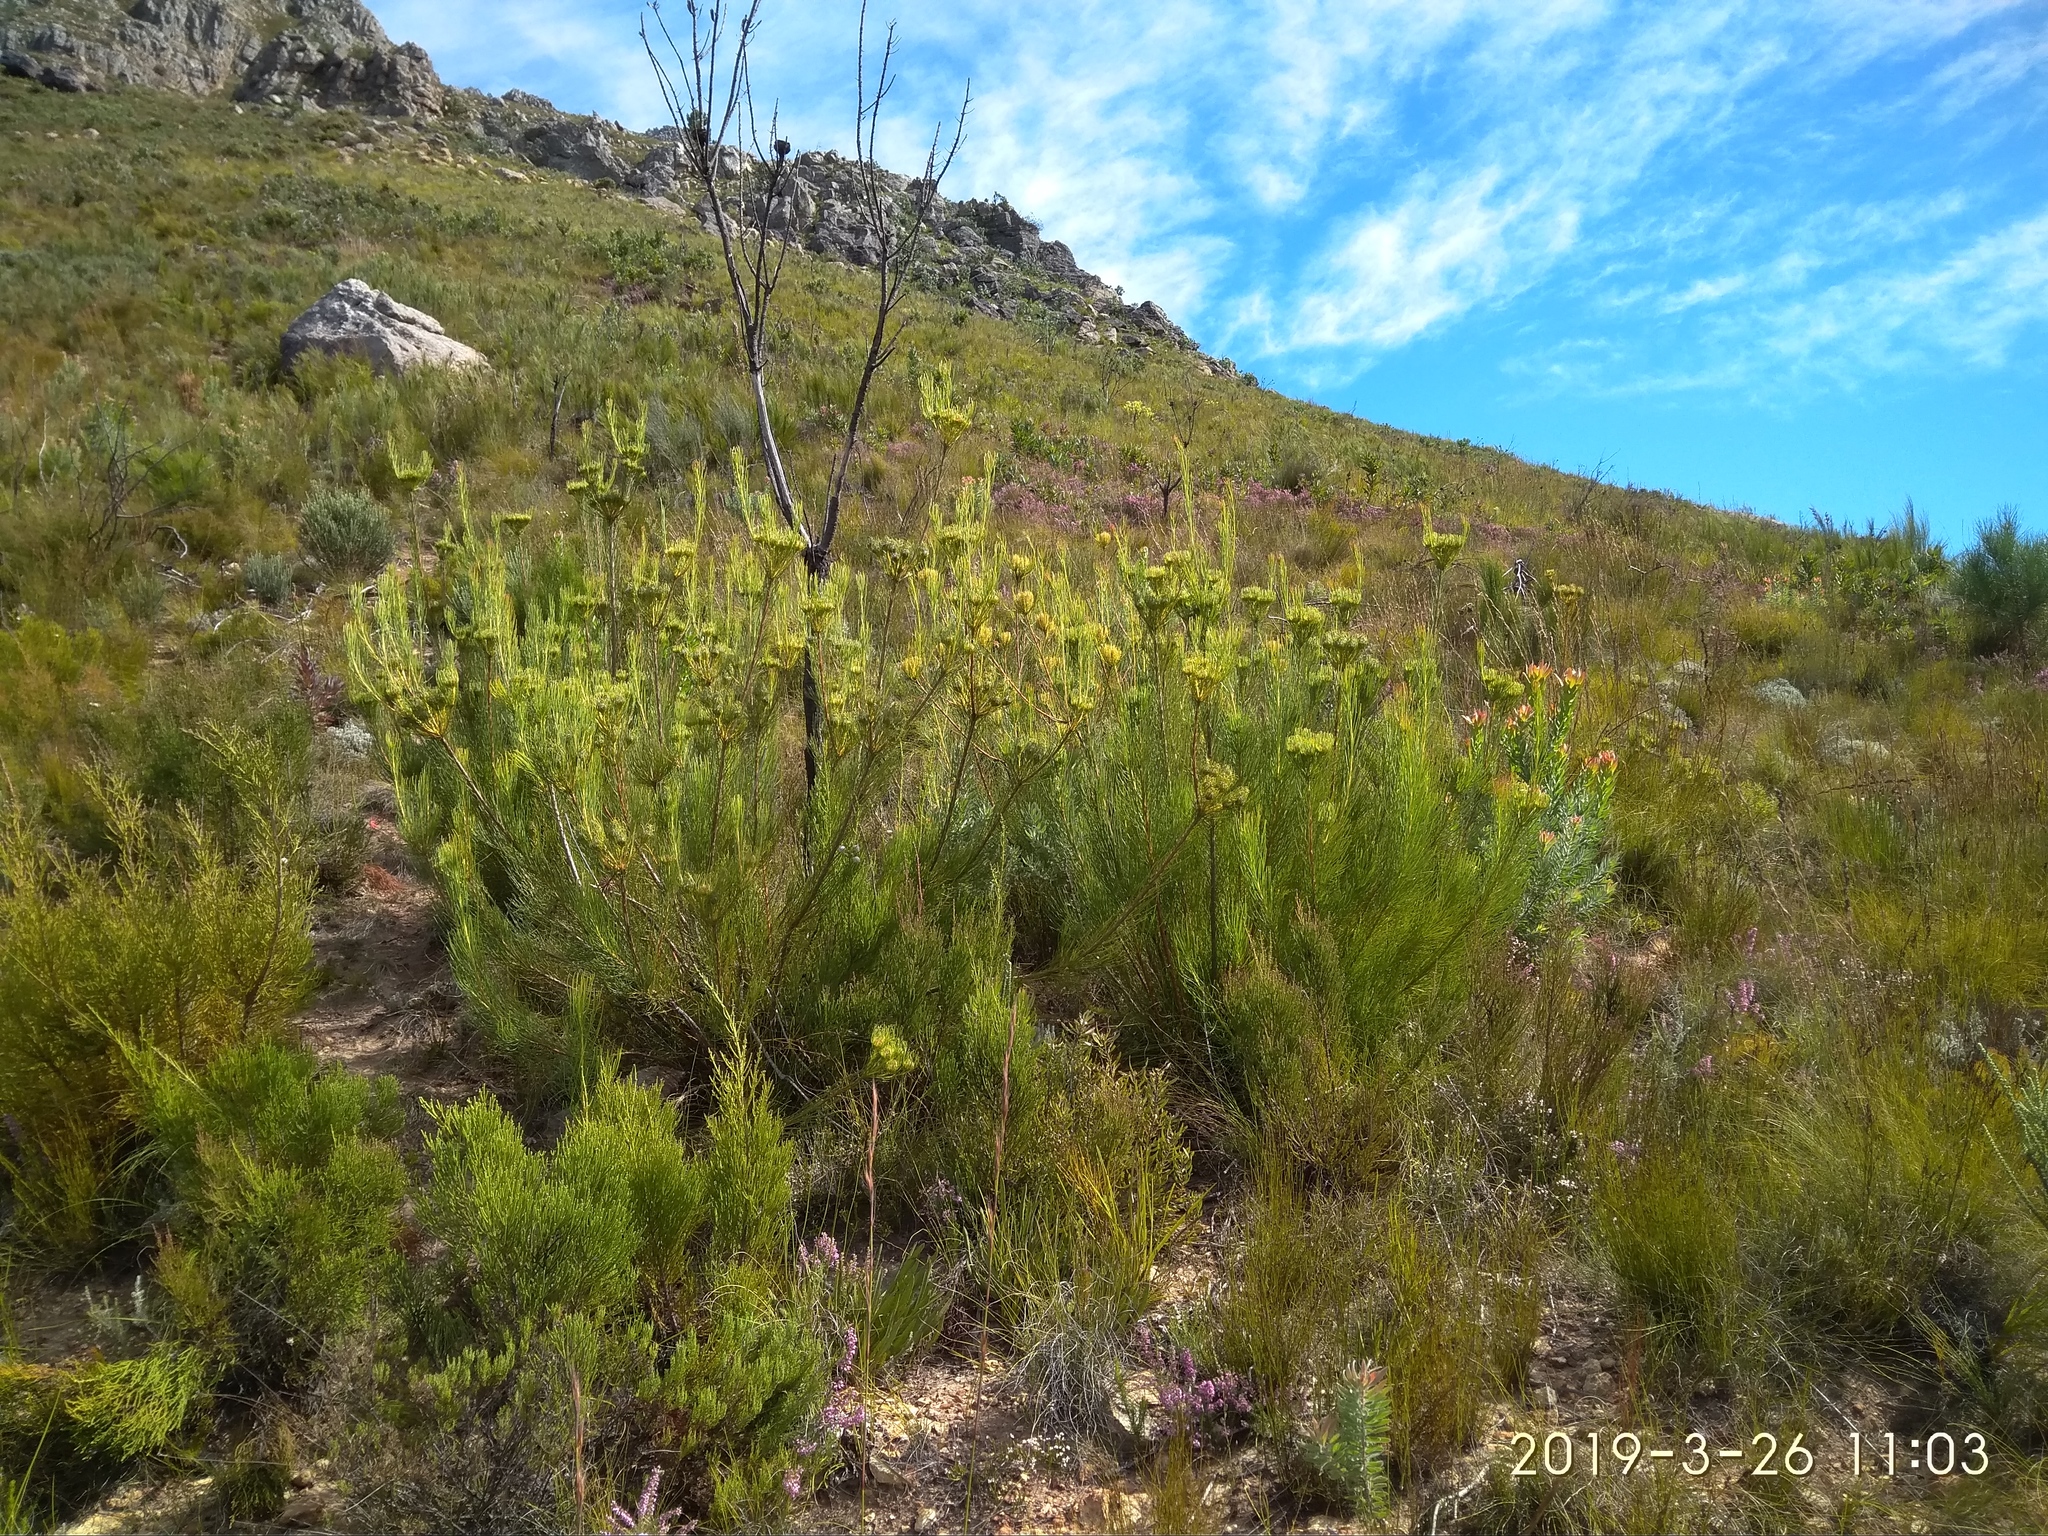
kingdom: Plantae
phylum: Tracheophyta
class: Magnoliopsida
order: Proteales
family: Proteaceae
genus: Aulax
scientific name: Aulax pallasia
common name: Needle-leaf featherbush
